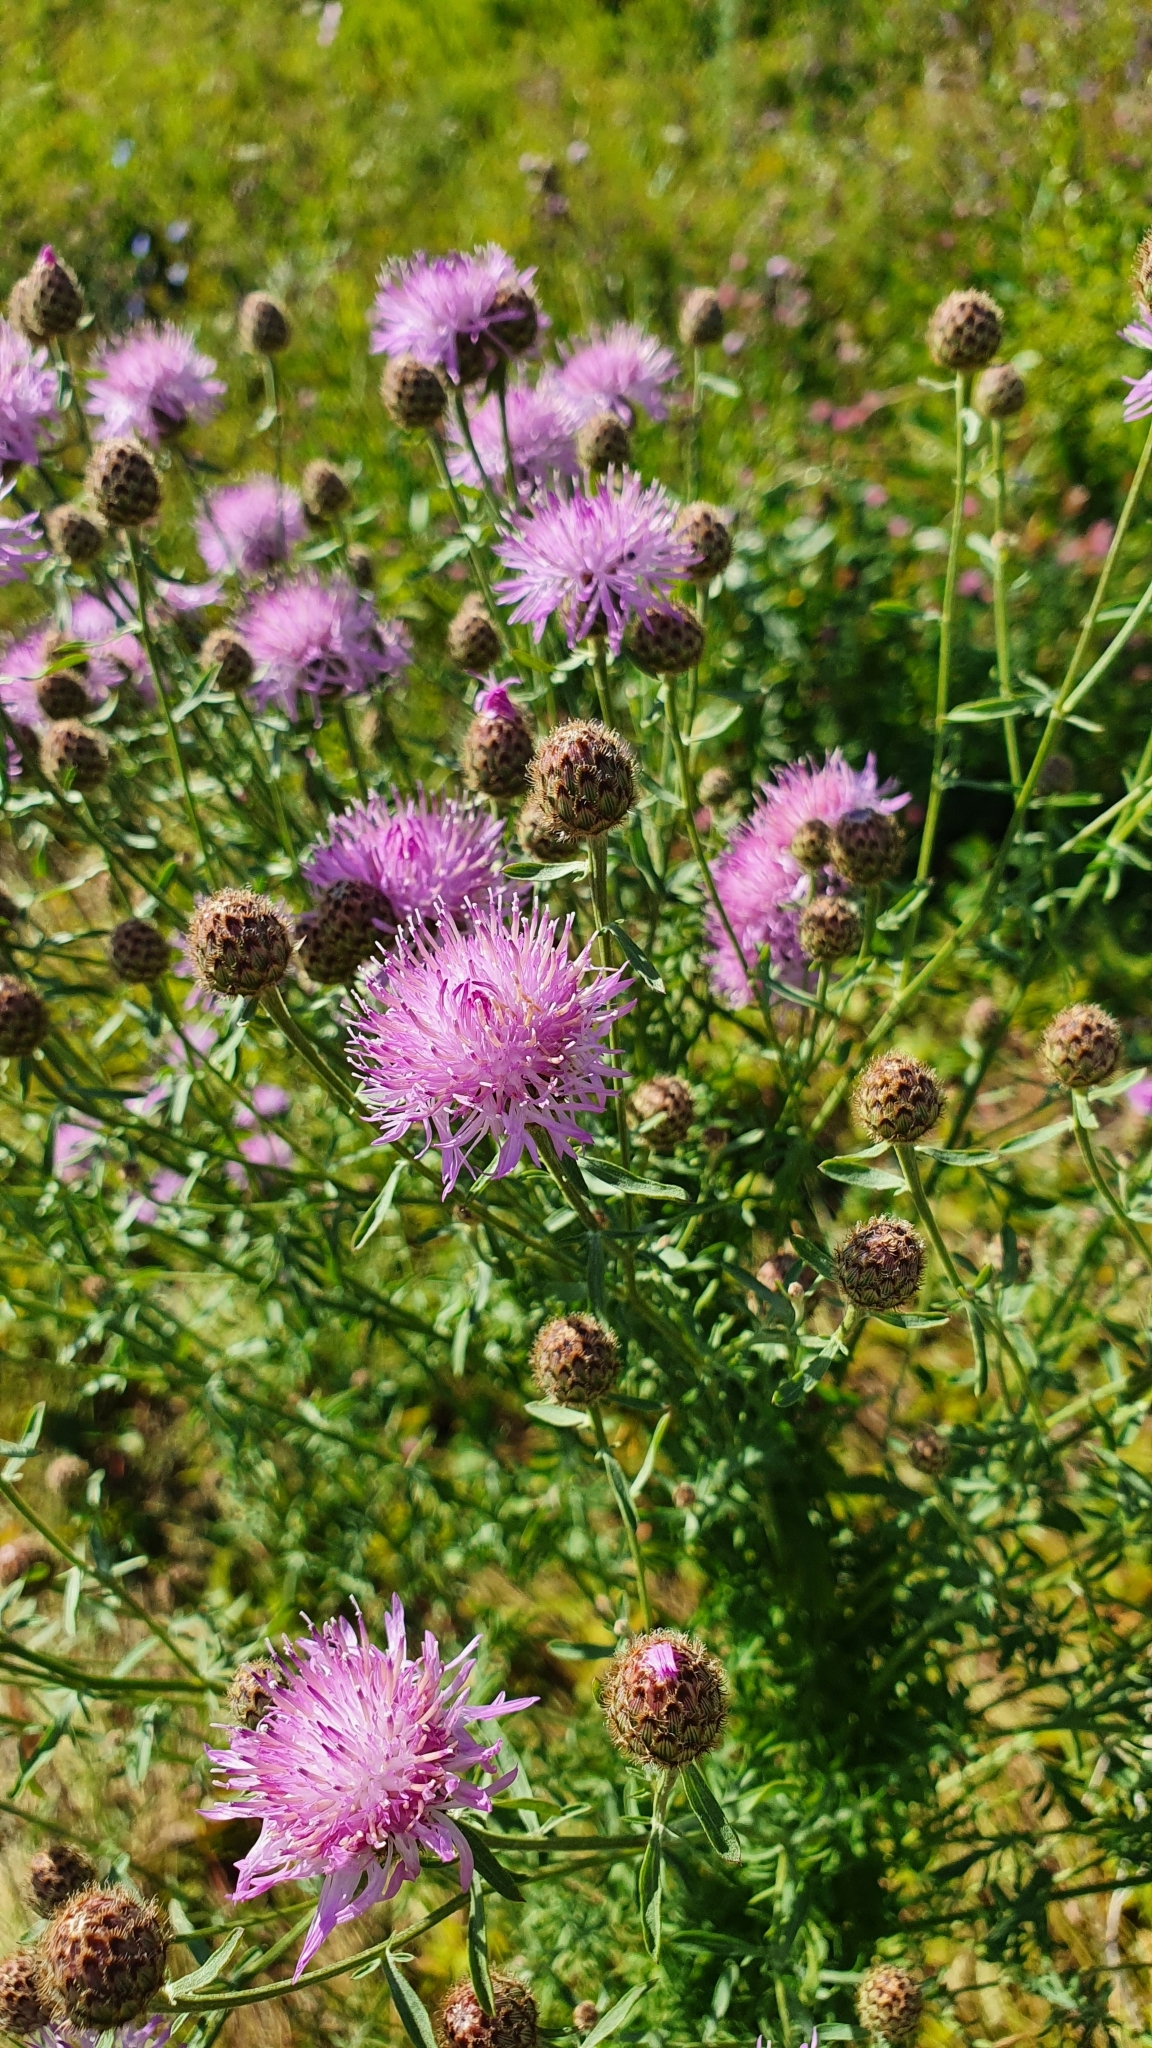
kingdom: Plantae
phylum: Tracheophyta
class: Magnoliopsida
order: Asterales
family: Asteraceae
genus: Centaurea
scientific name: Centaurea stoebe
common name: Spotted knapweed
